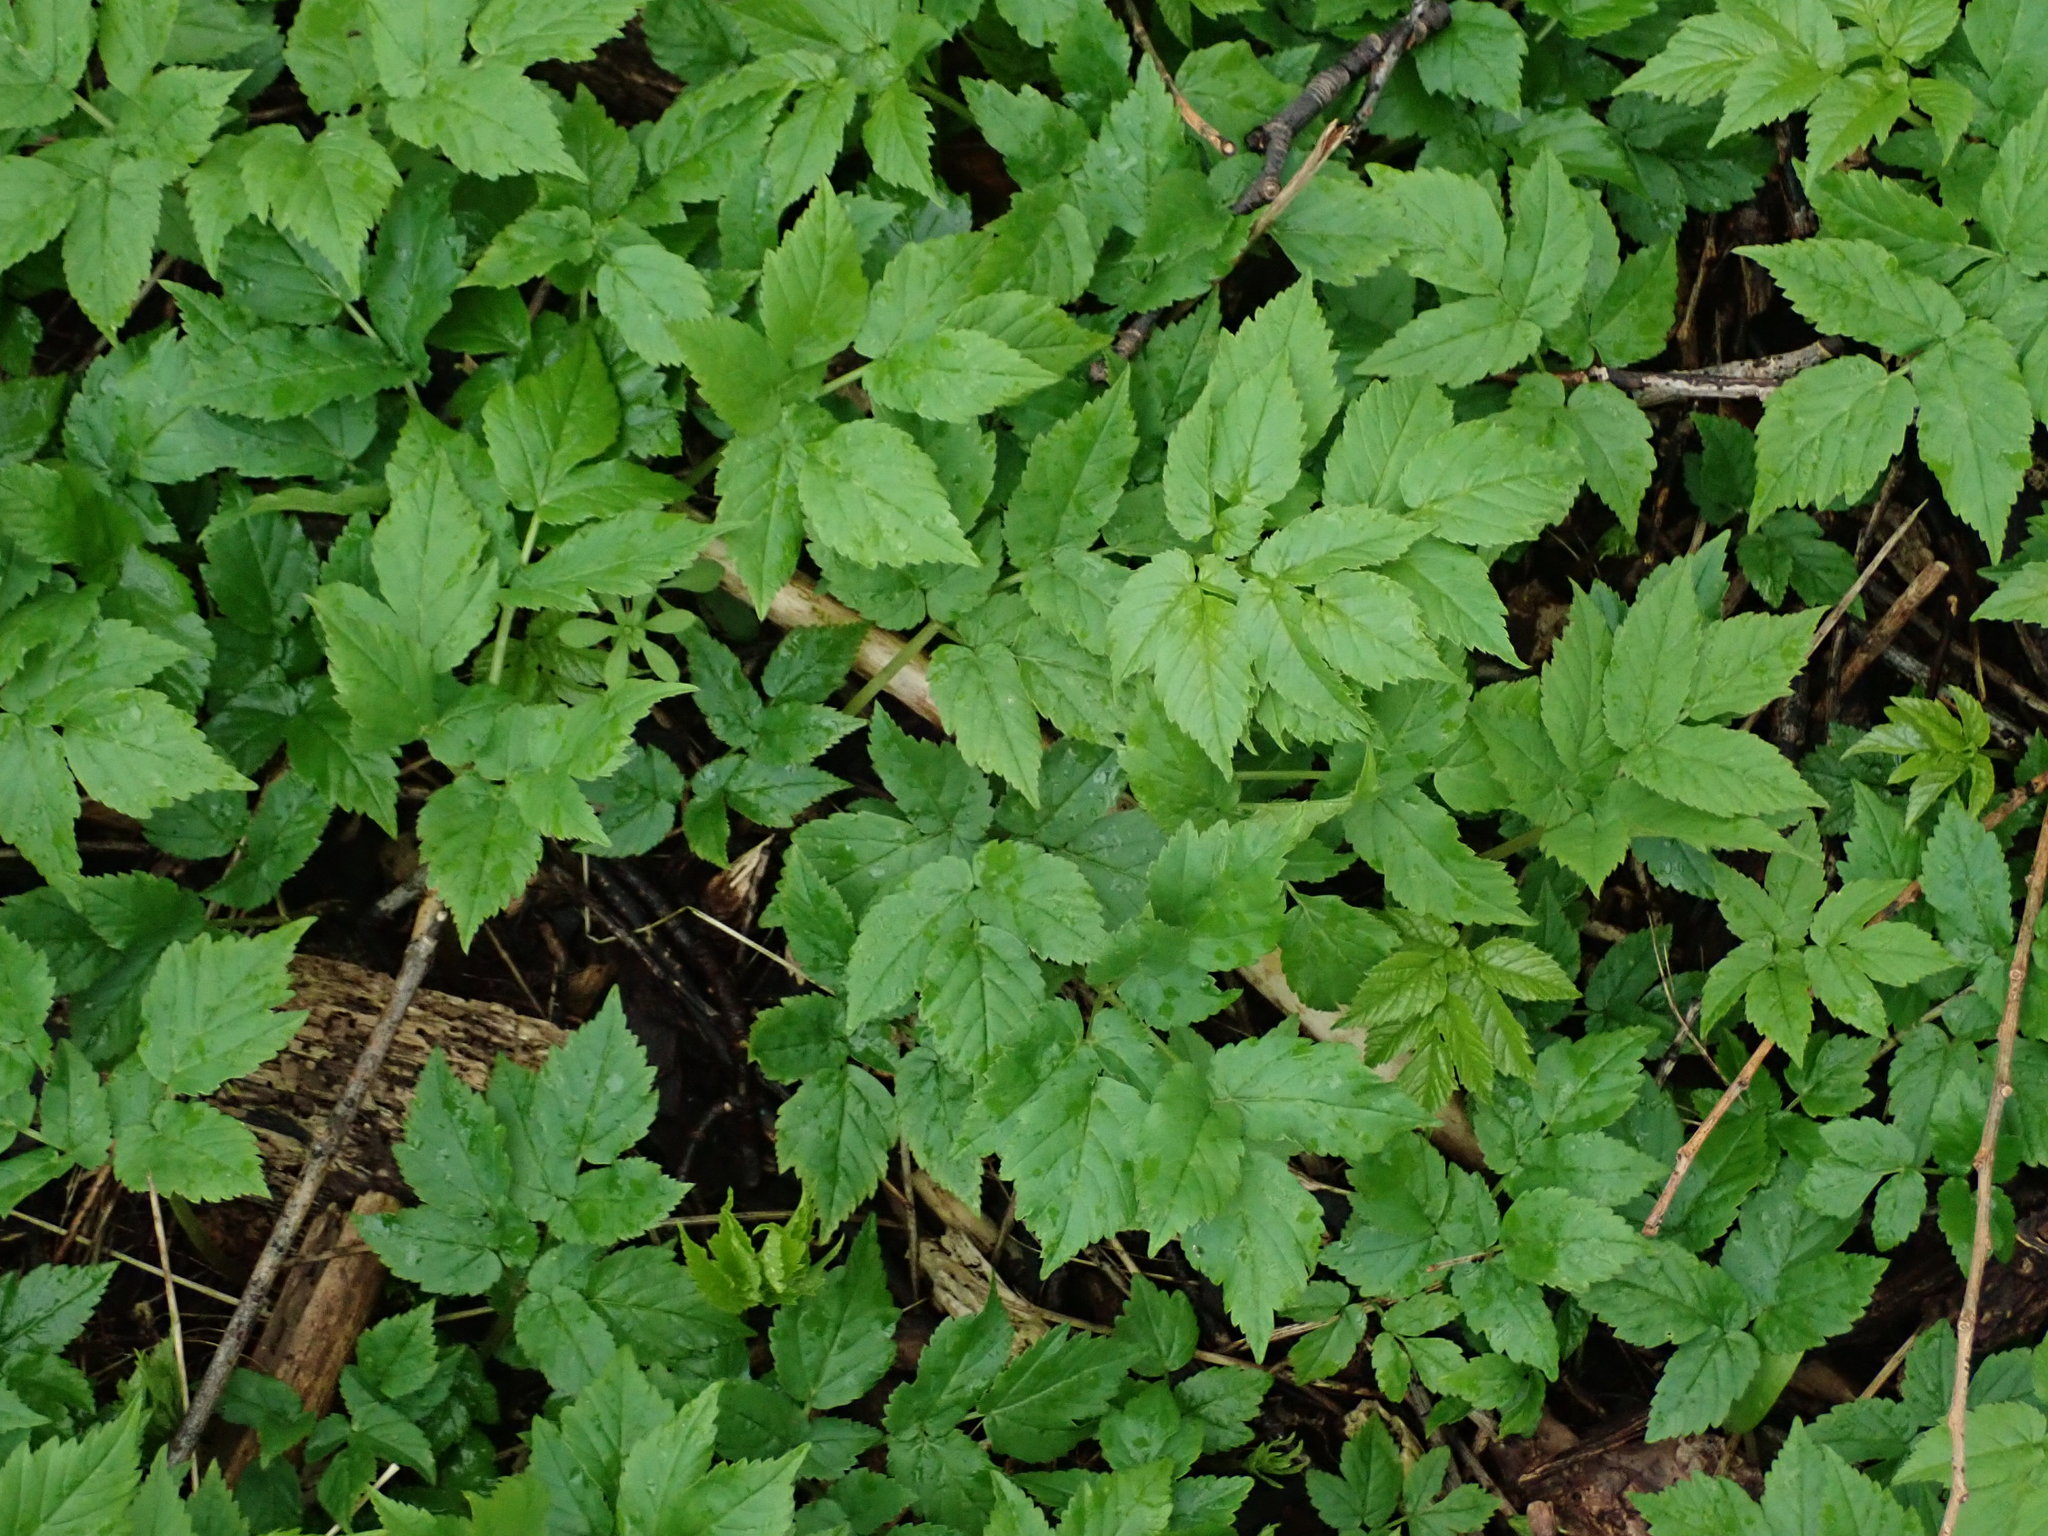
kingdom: Plantae
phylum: Tracheophyta
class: Magnoliopsida
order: Apiales
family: Apiaceae
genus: Aegopodium
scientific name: Aegopodium podagraria
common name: Ground-elder
